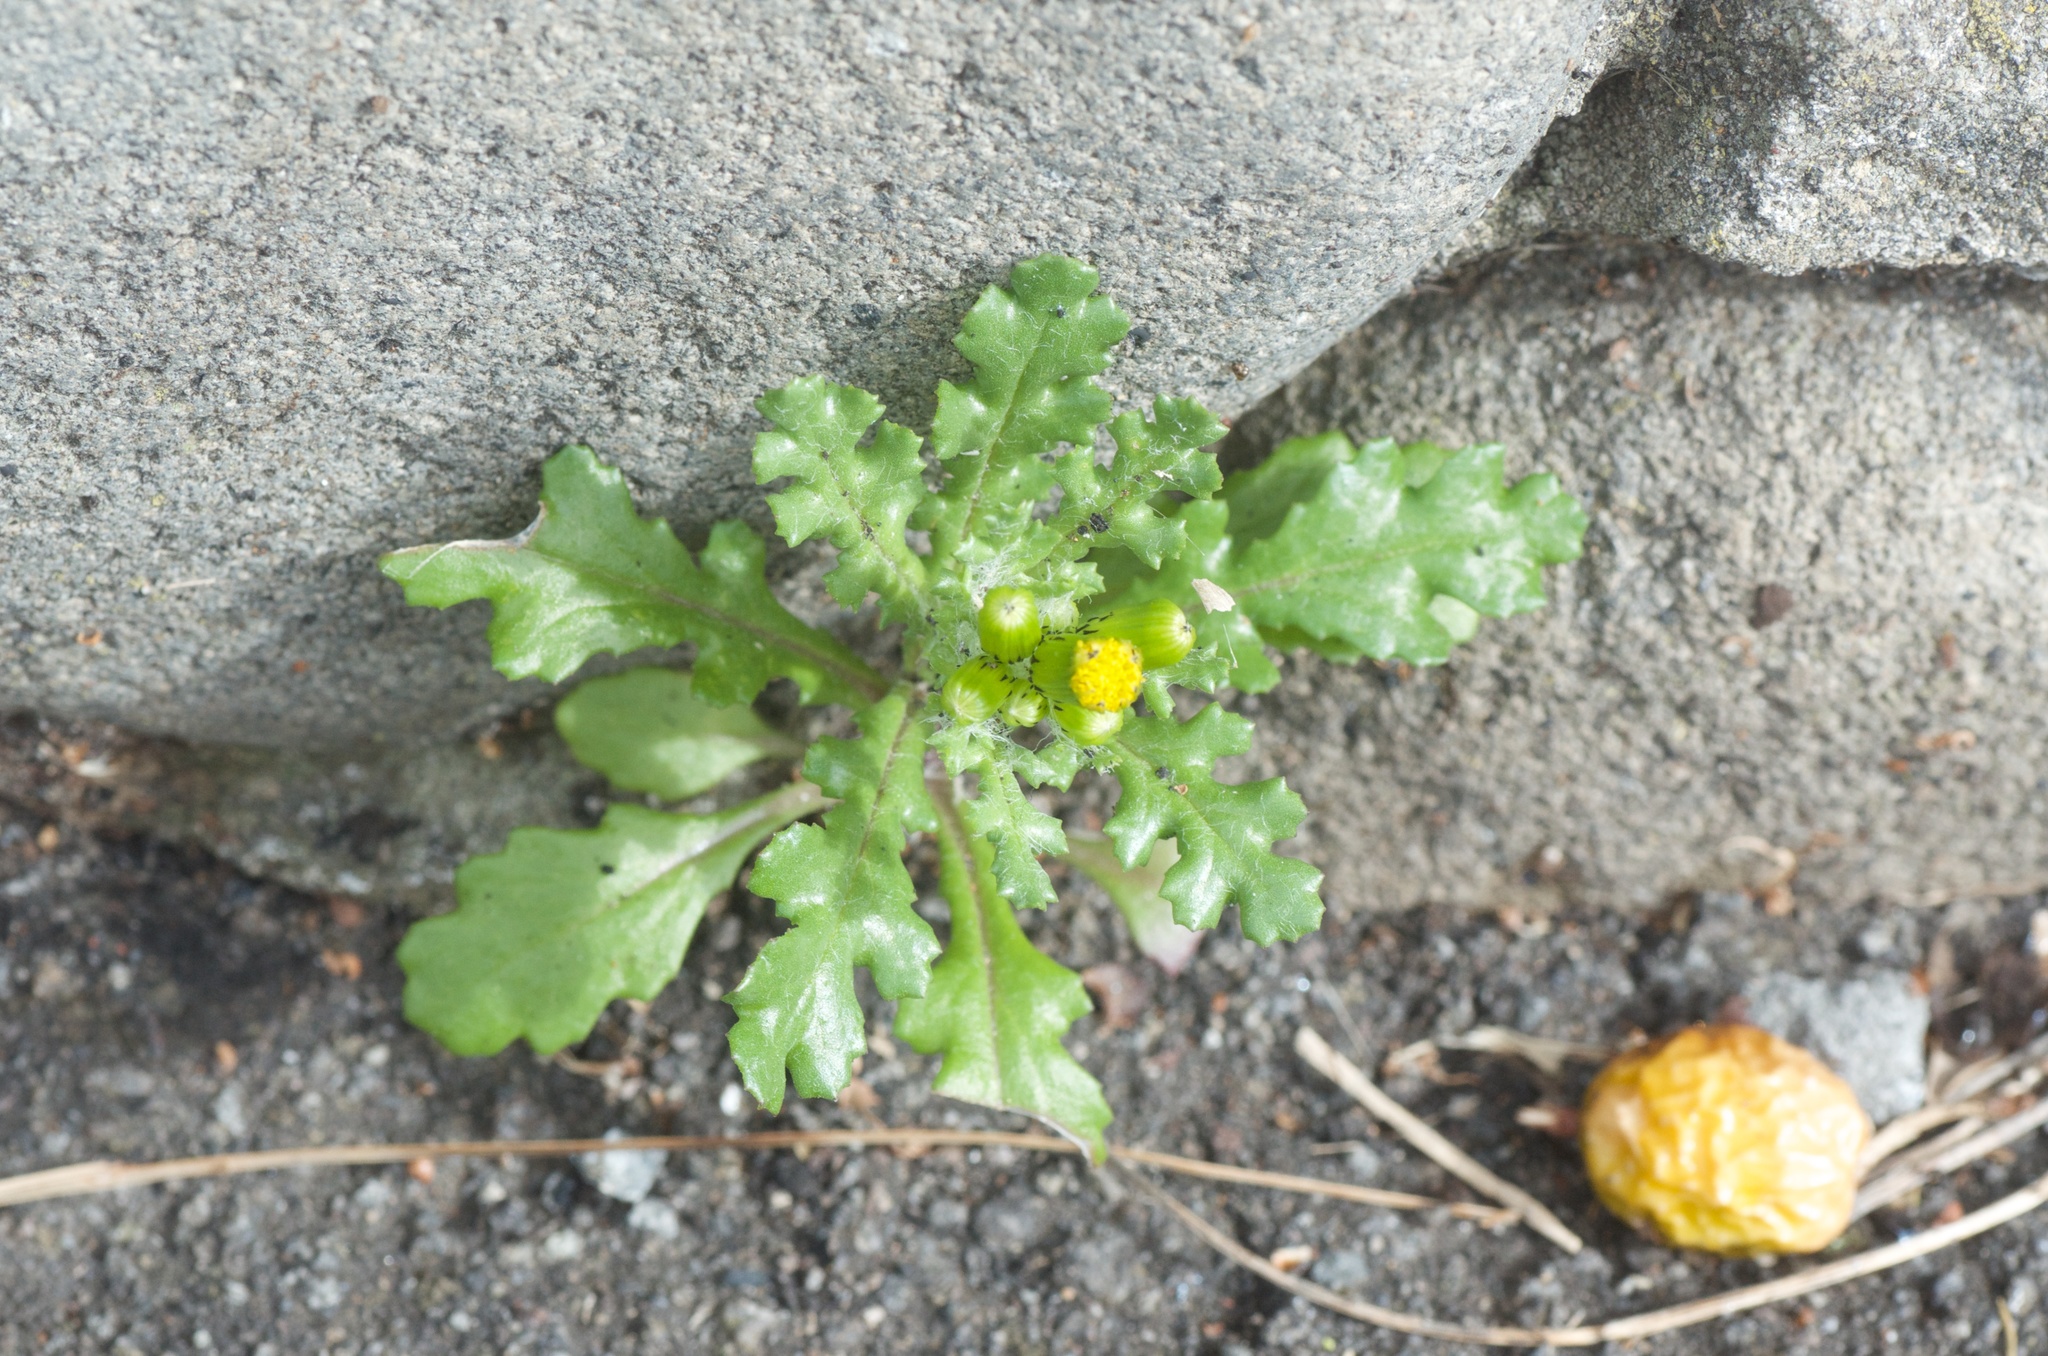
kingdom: Plantae
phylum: Tracheophyta
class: Magnoliopsida
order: Asterales
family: Asteraceae
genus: Senecio
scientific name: Senecio vulgaris
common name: Old-man-in-the-spring
